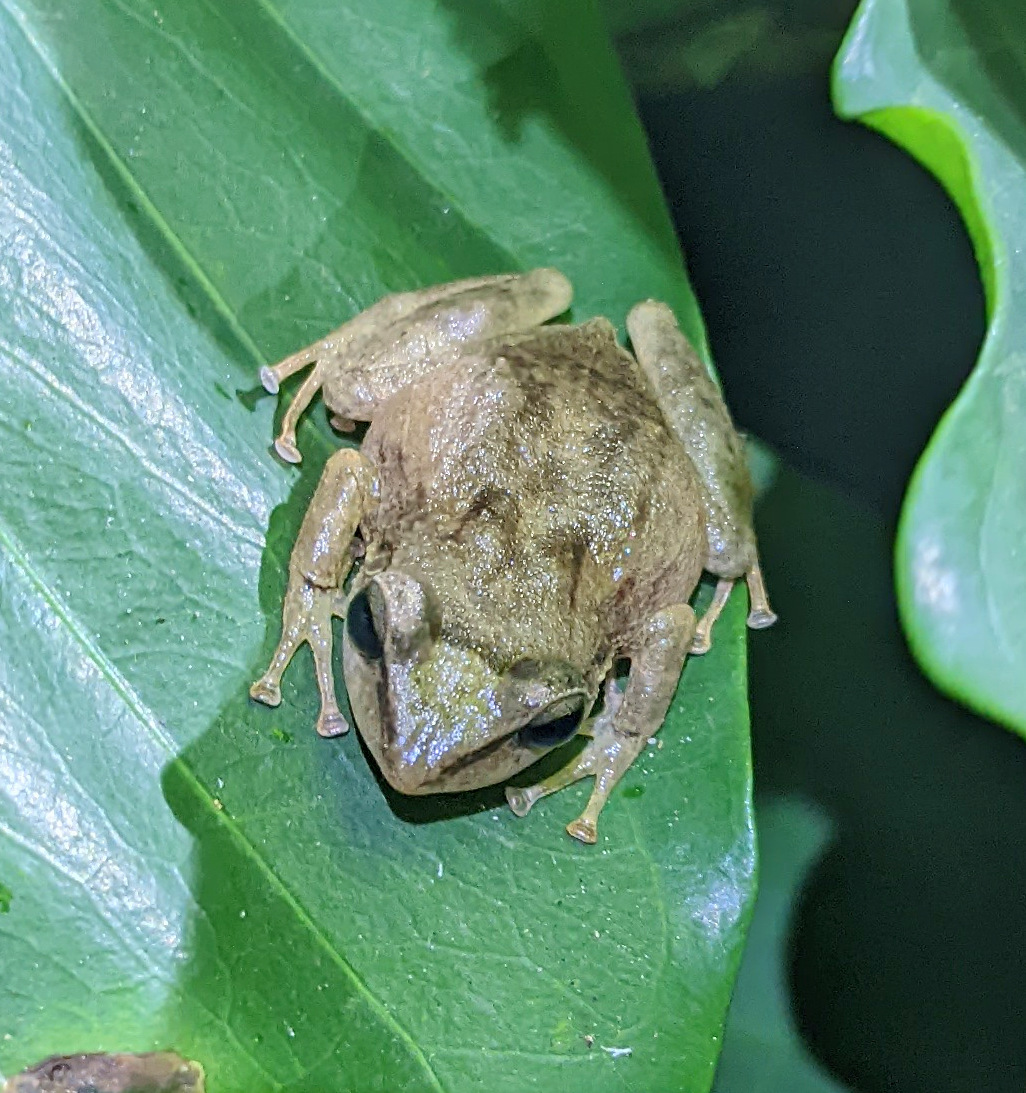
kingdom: Animalia
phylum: Chordata
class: Amphibia
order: Anura
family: Eleutherodactylidae
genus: Eleutherodactylus
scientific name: Eleutherodactylus coqui
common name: Coqui frog
